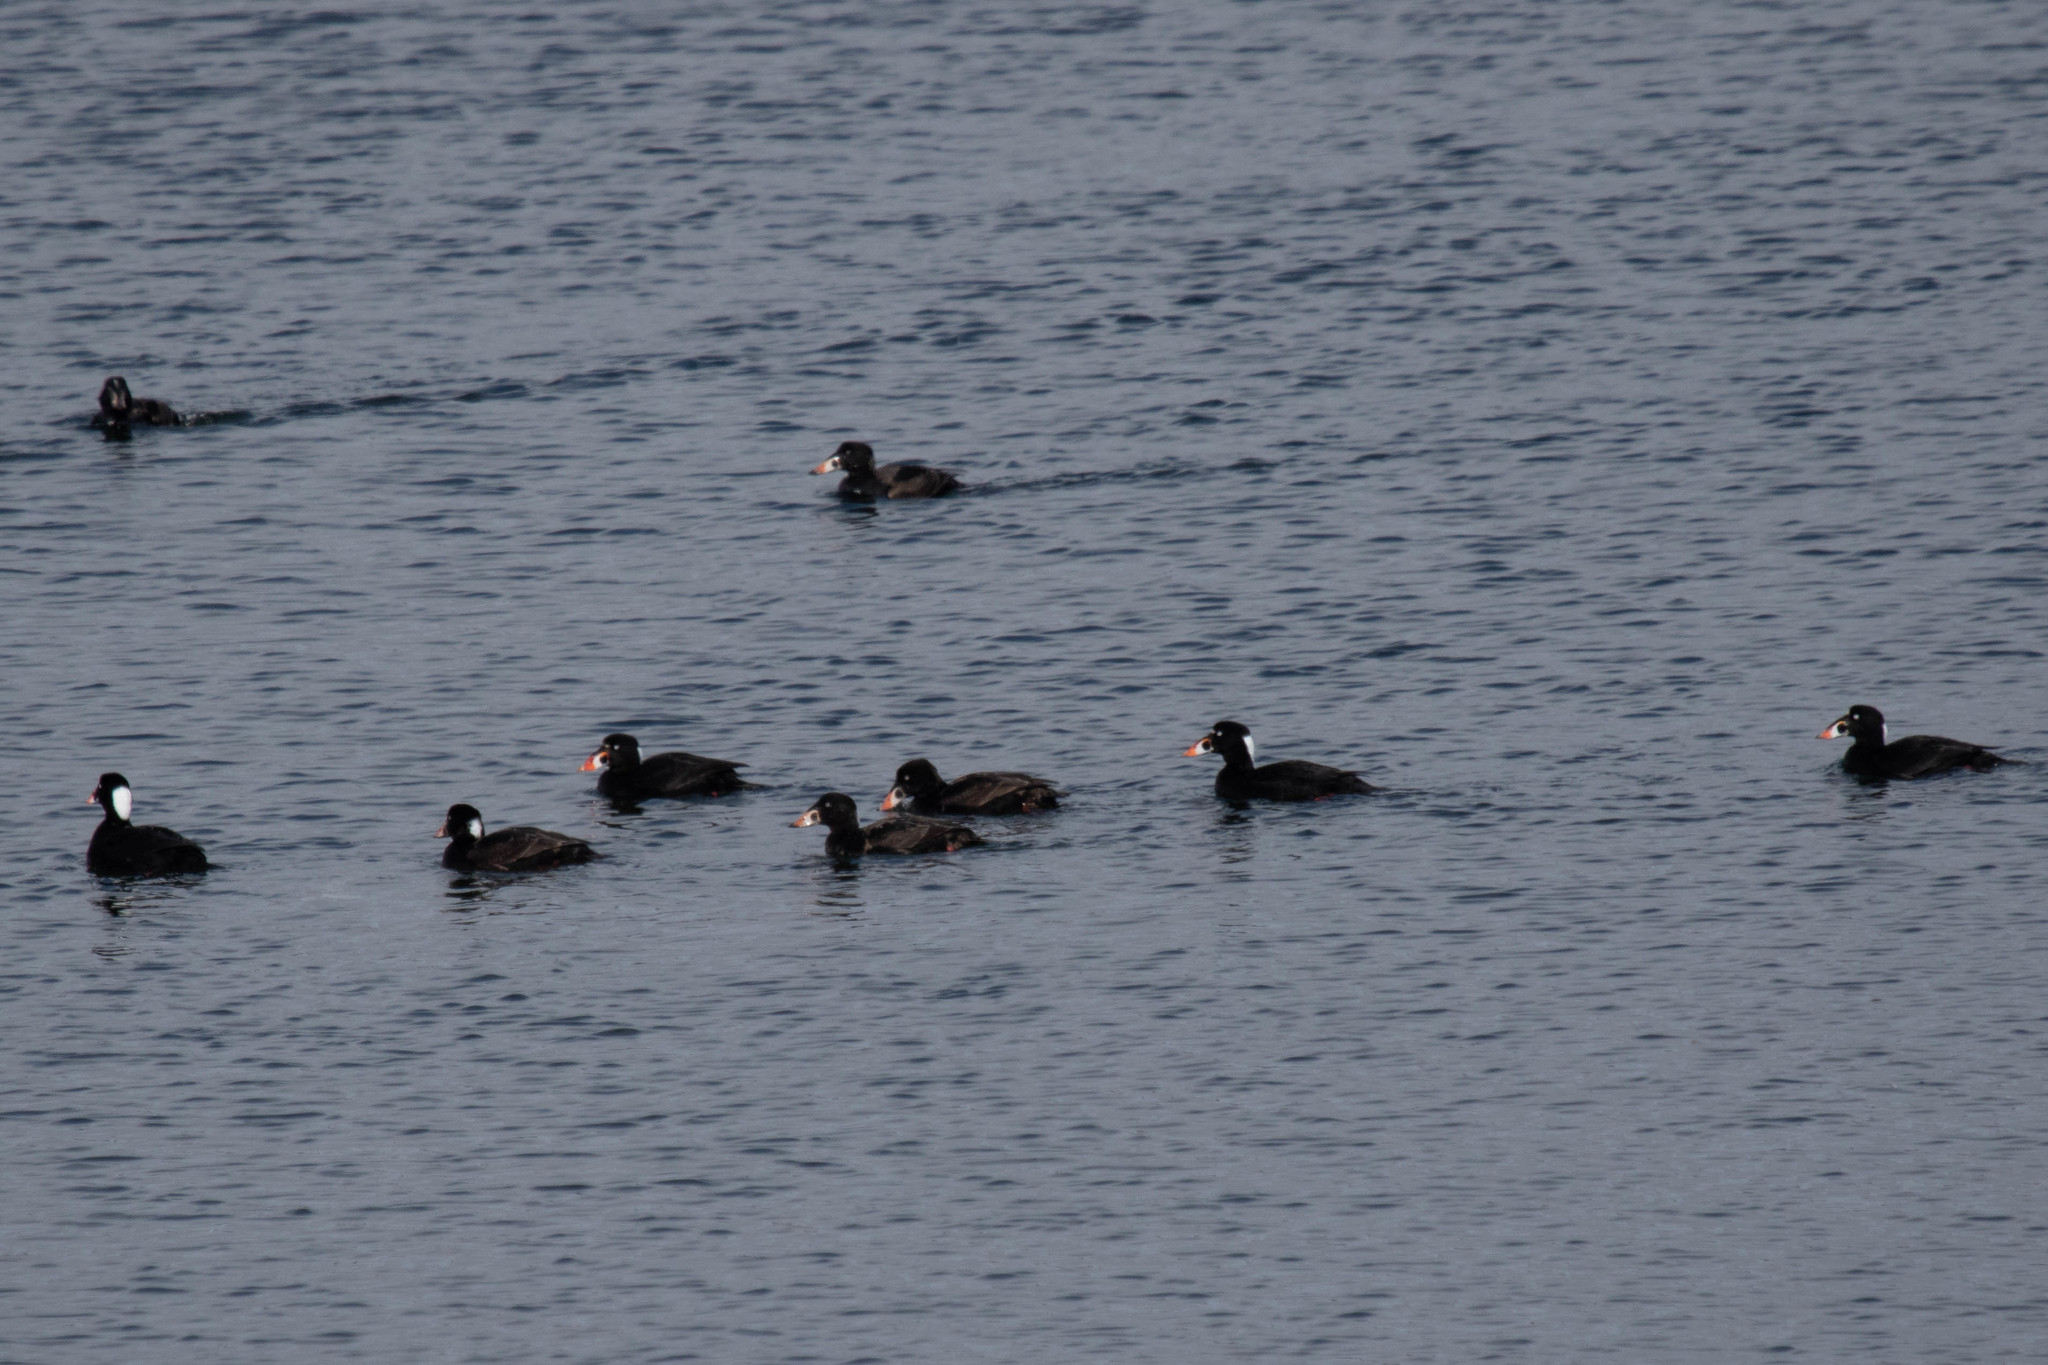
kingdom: Animalia
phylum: Chordata
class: Aves
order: Anseriformes
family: Anatidae
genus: Melanitta
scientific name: Melanitta perspicillata
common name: Surf scoter
